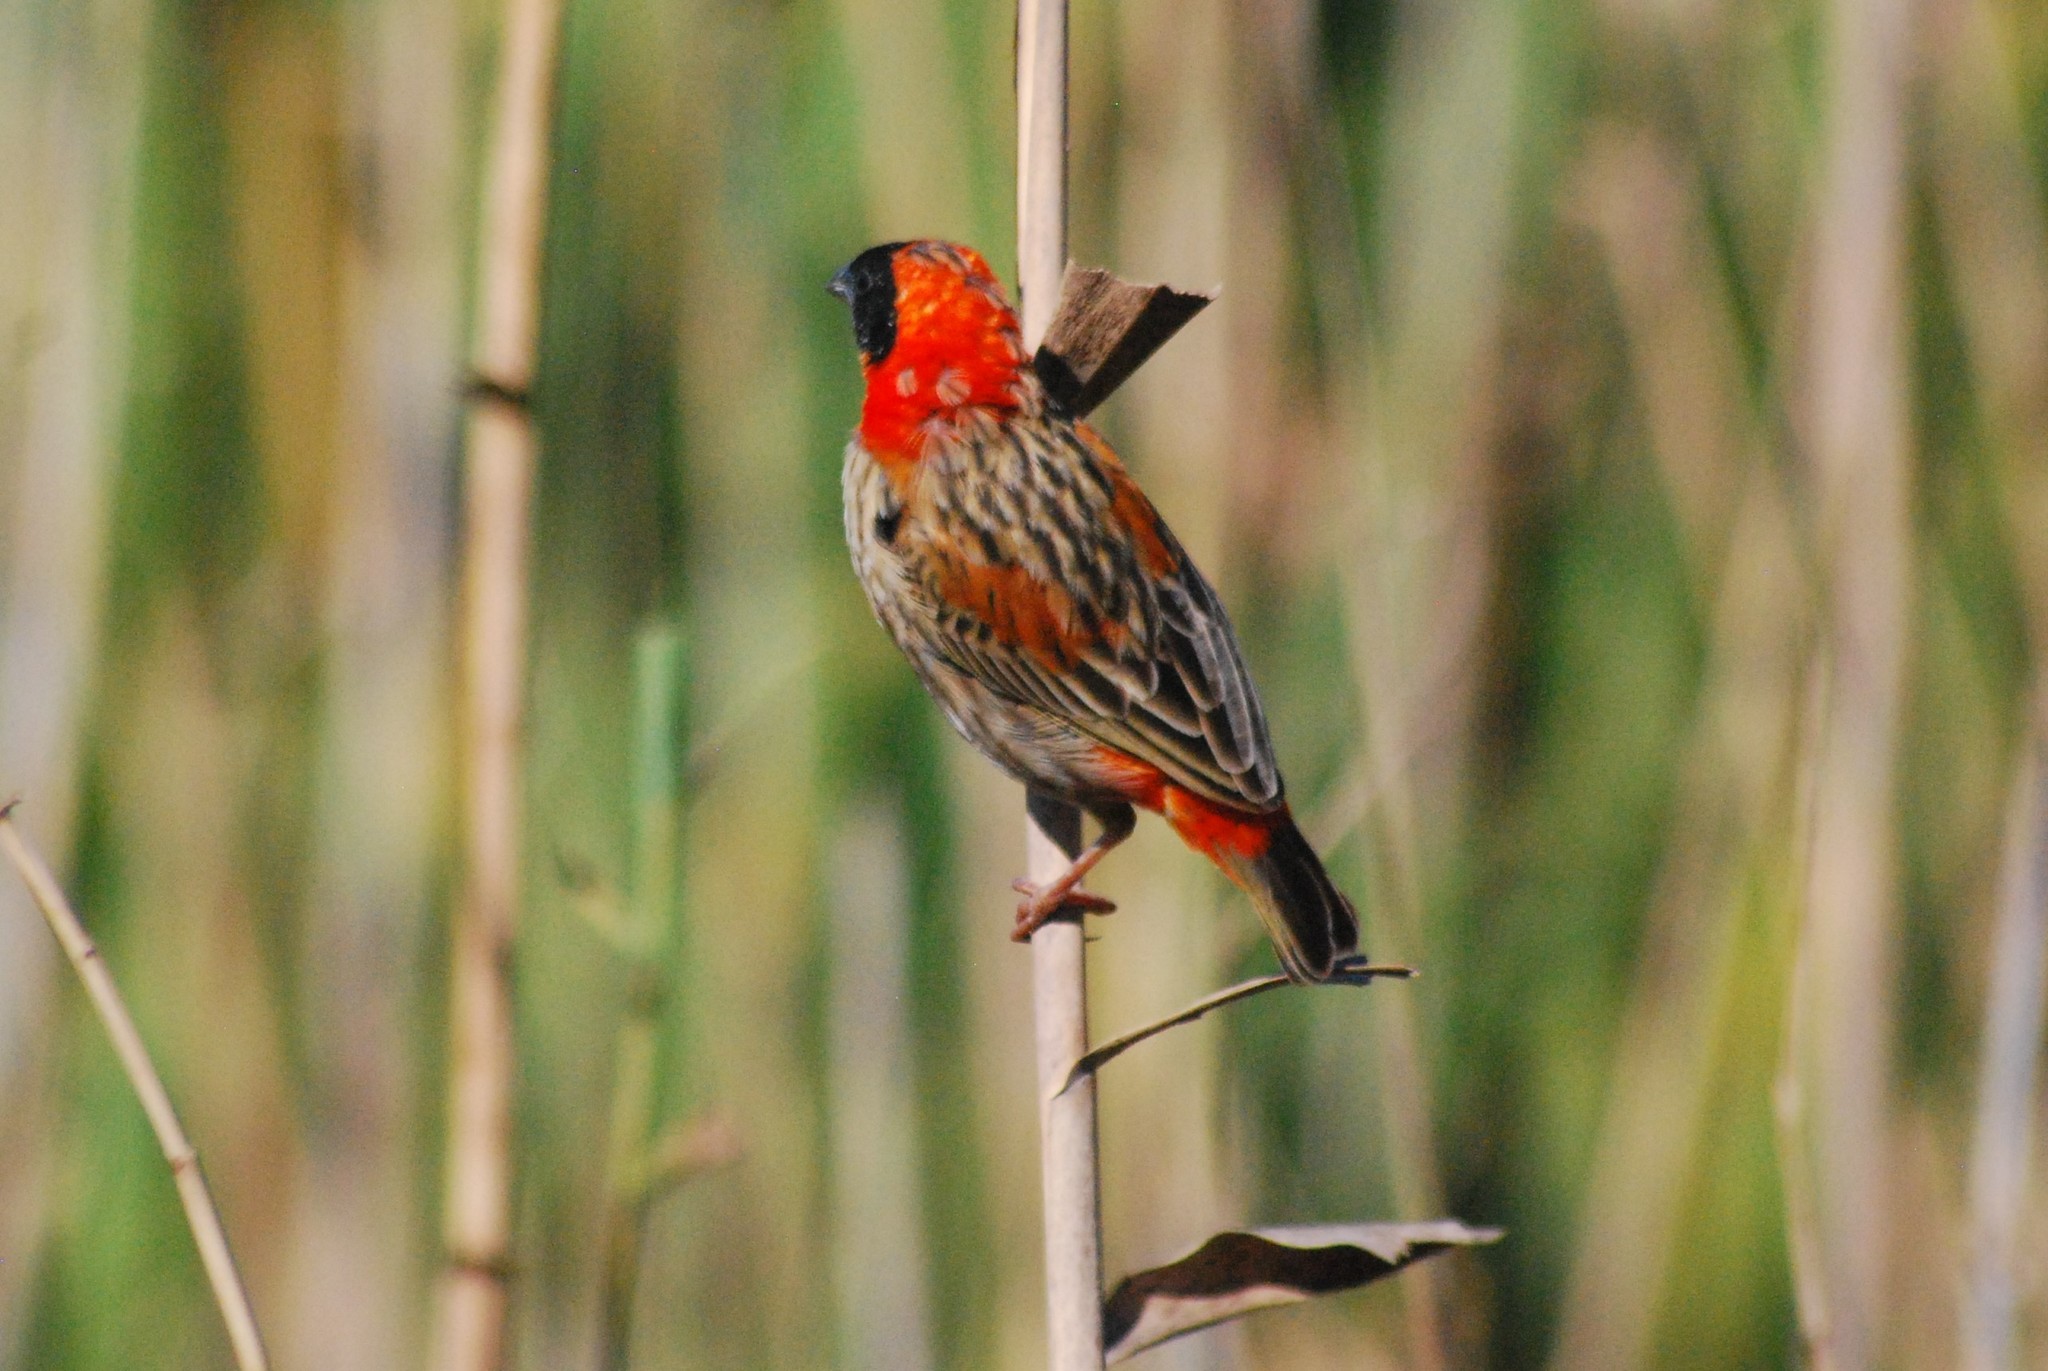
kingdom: Animalia
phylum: Chordata
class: Aves
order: Passeriformes
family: Ploceidae
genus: Euplectes
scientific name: Euplectes orix
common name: Southern red bishop
